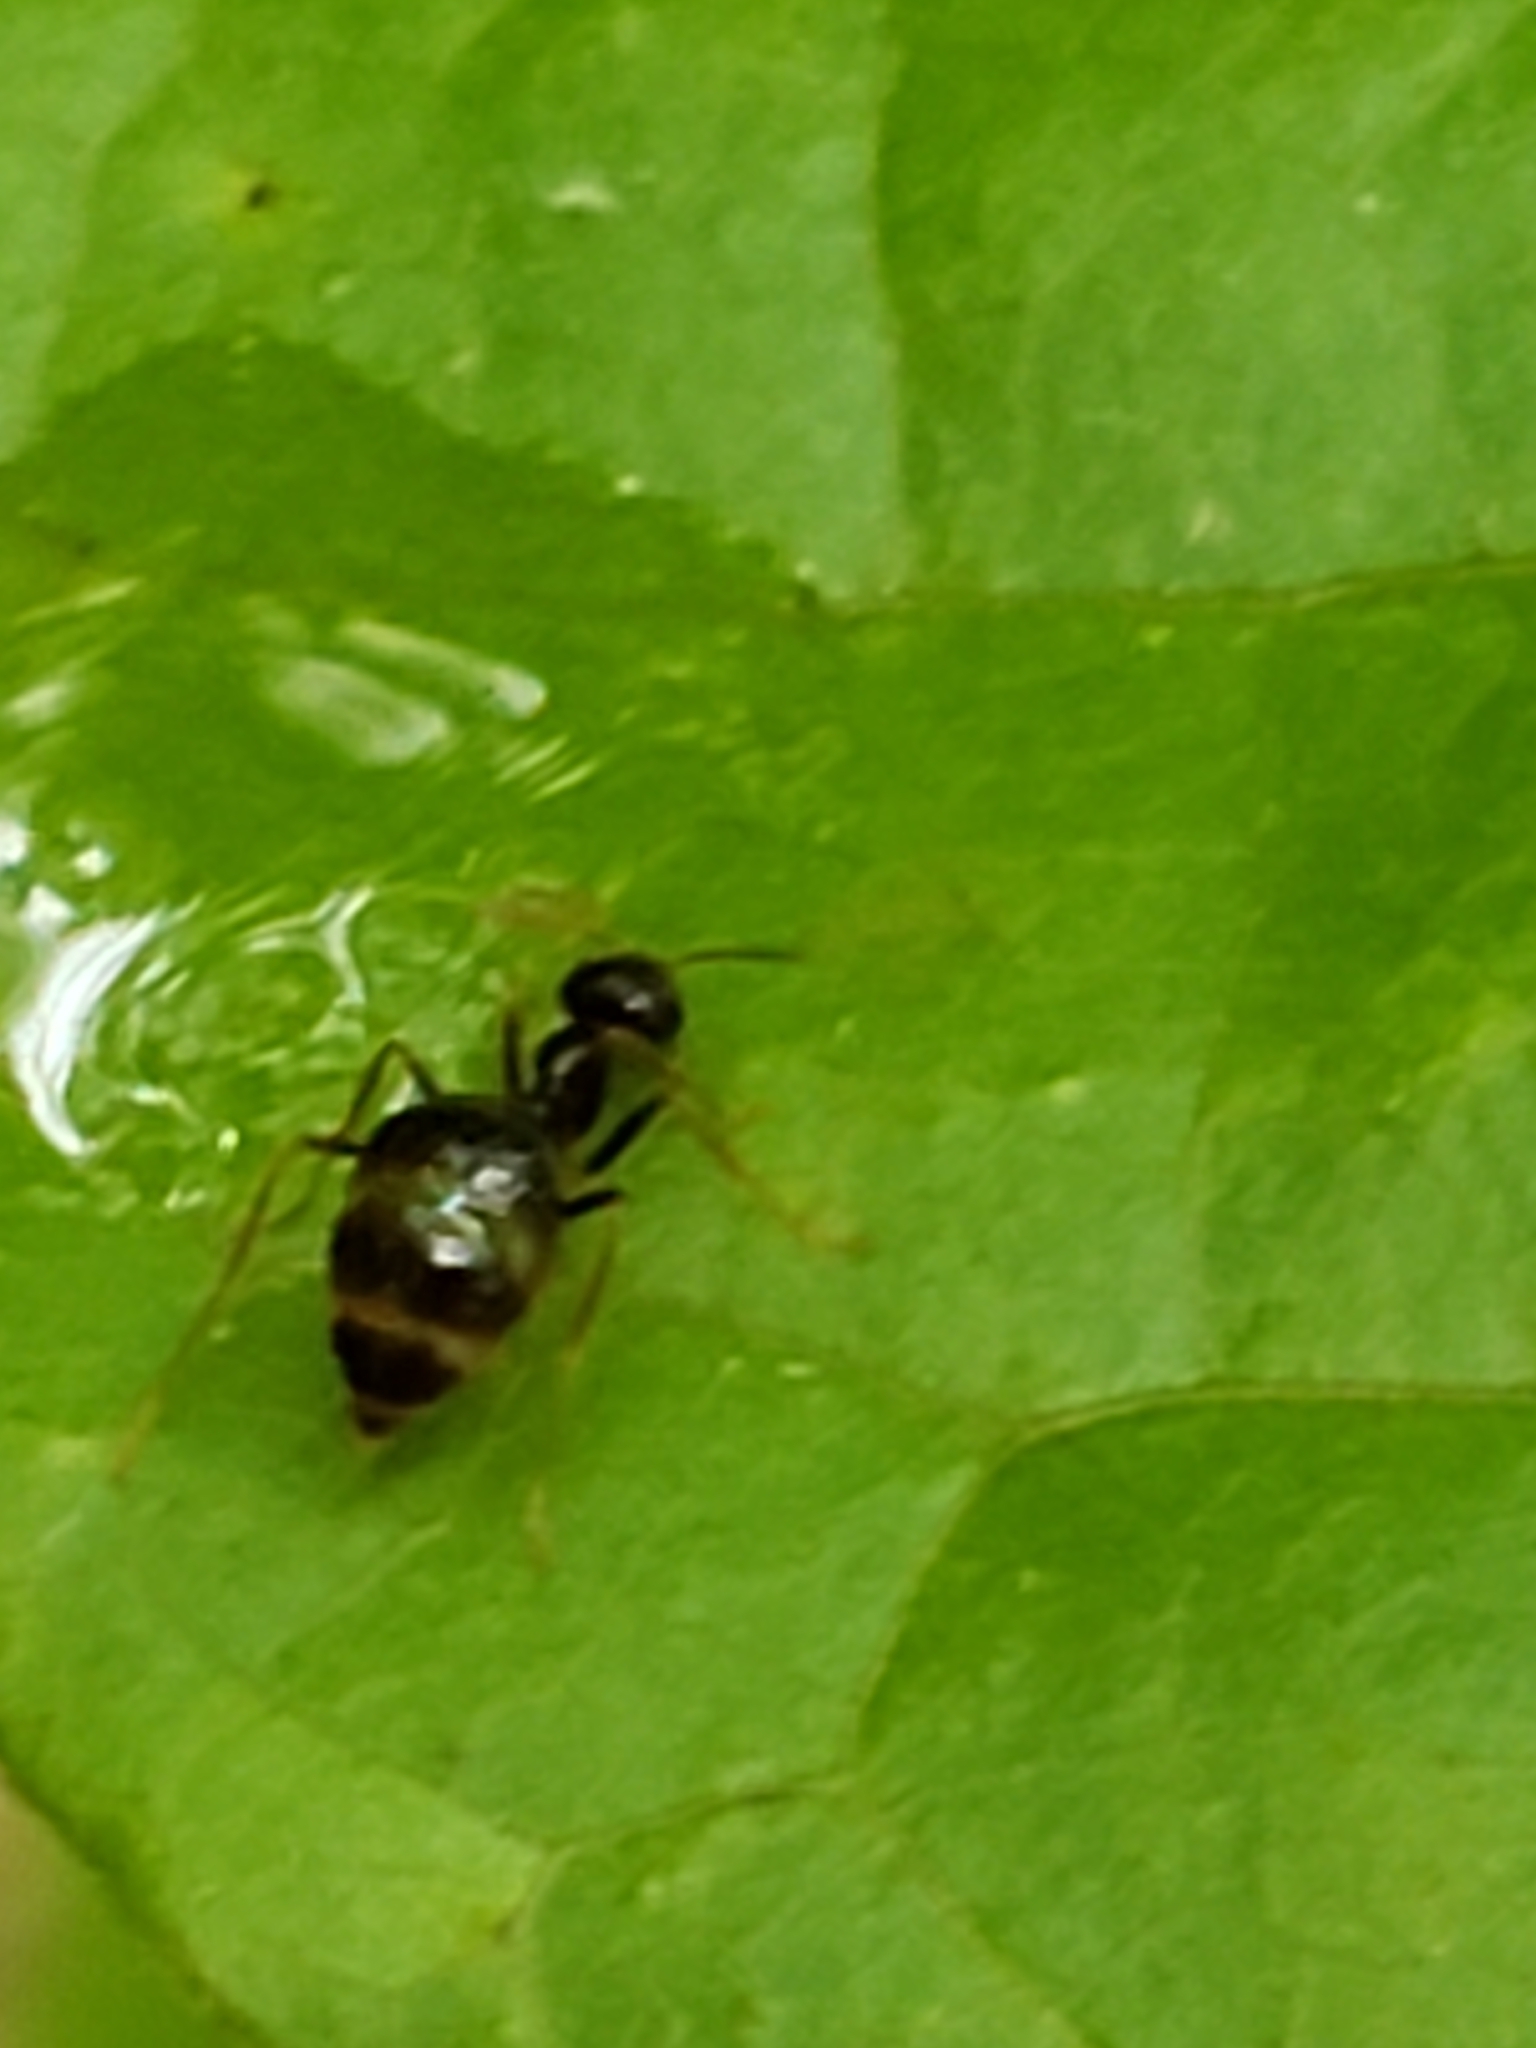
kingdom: Animalia
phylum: Arthropoda
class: Insecta
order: Hymenoptera
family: Formicidae
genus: Prenolepis
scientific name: Prenolepis imparis
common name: Small honey ant
